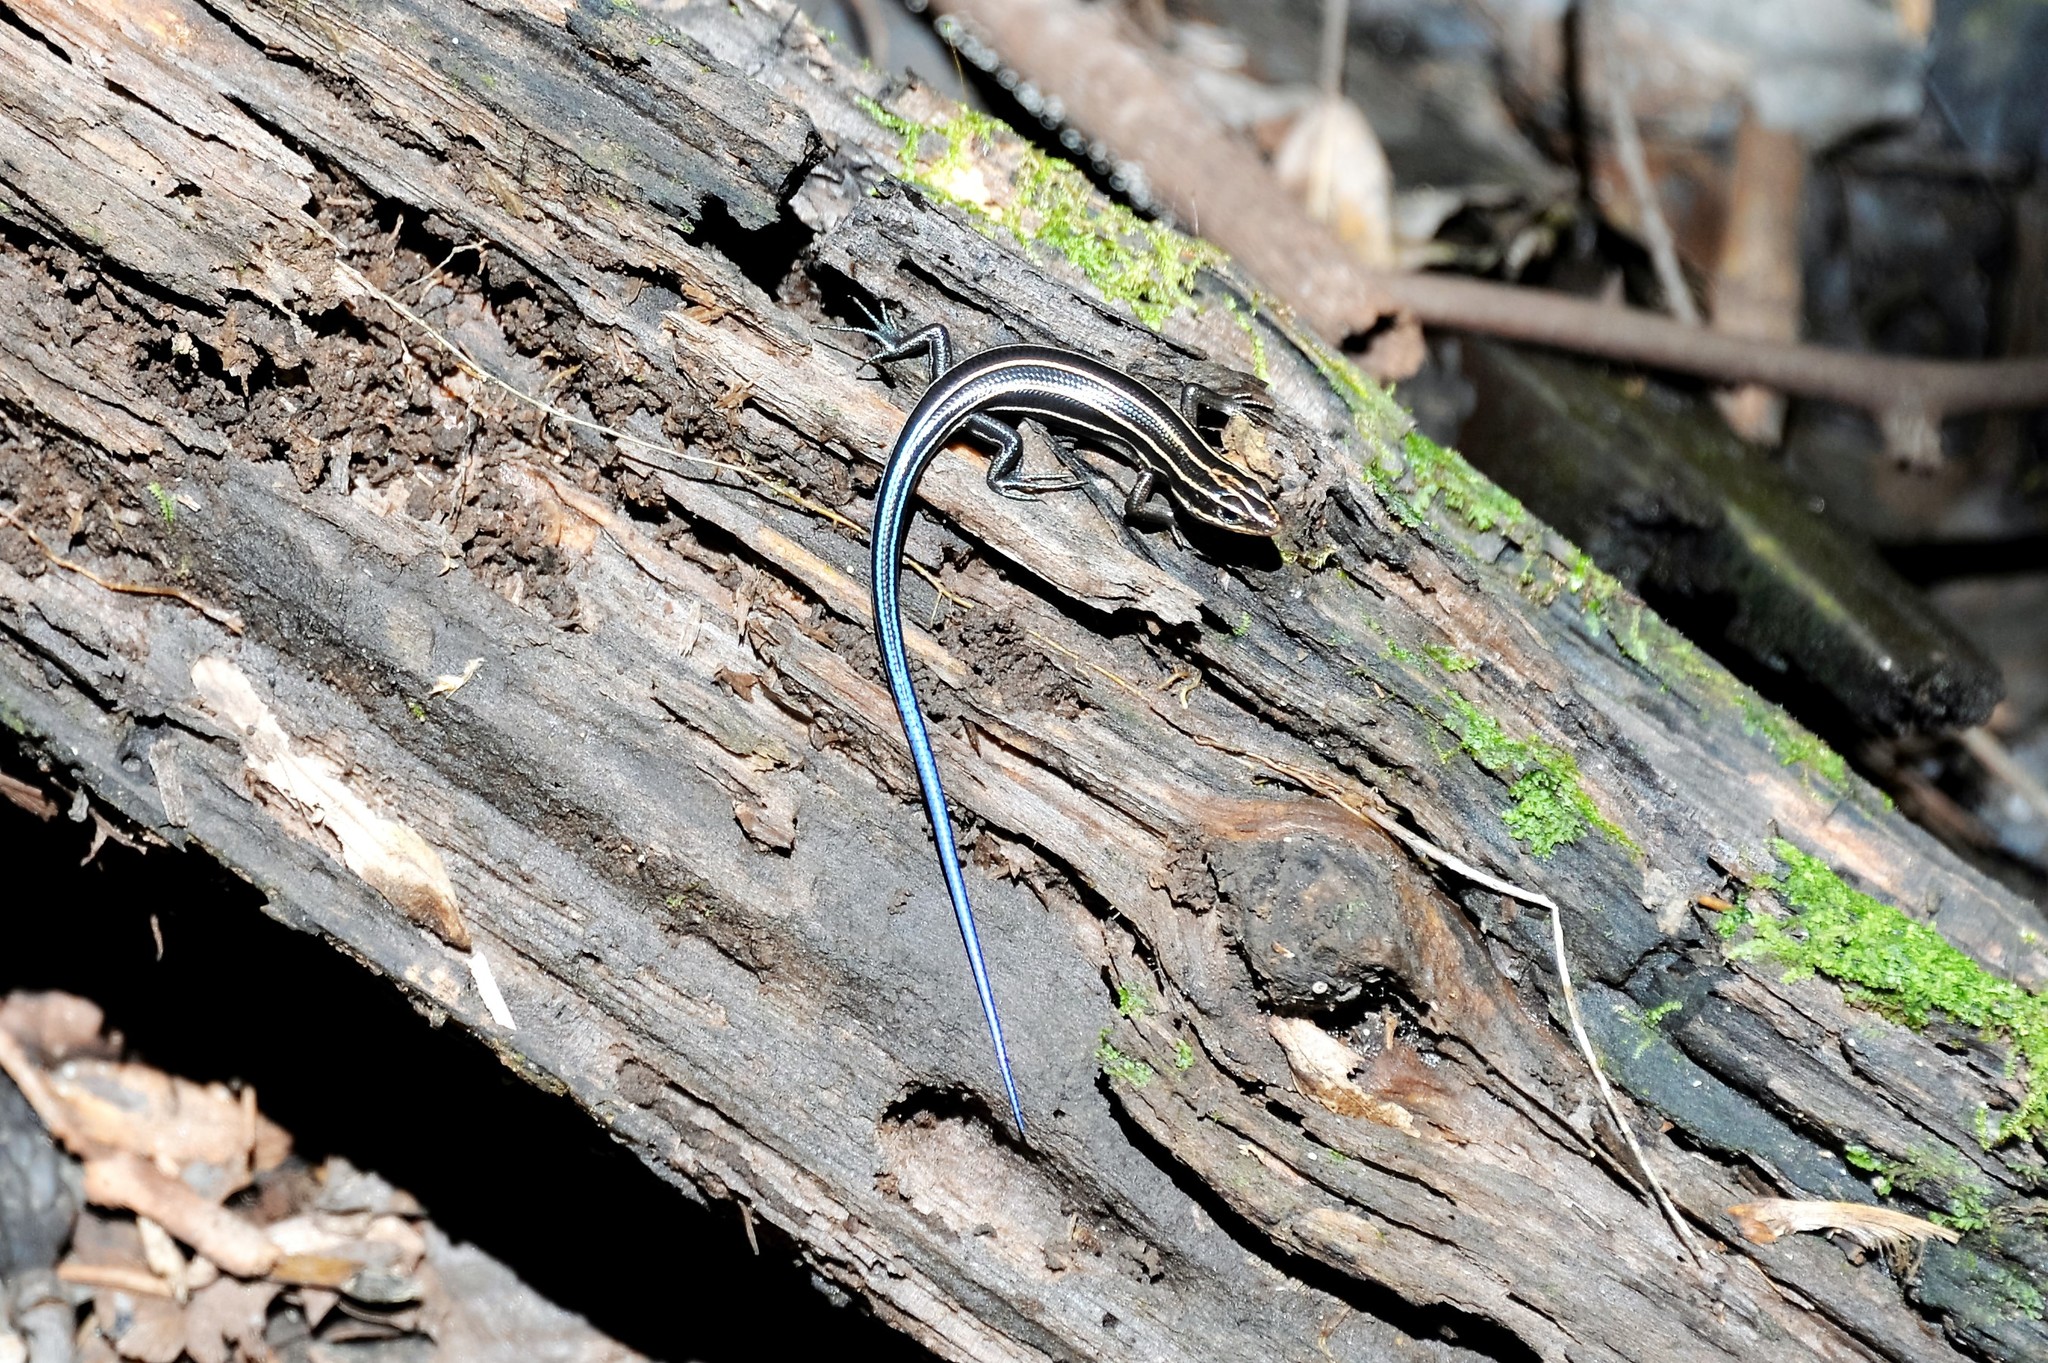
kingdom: Animalia
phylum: Chordata
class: Squamata
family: Scincidae
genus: Plestiodon
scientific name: Plestiodon fasciatus
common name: Five-lined skink
